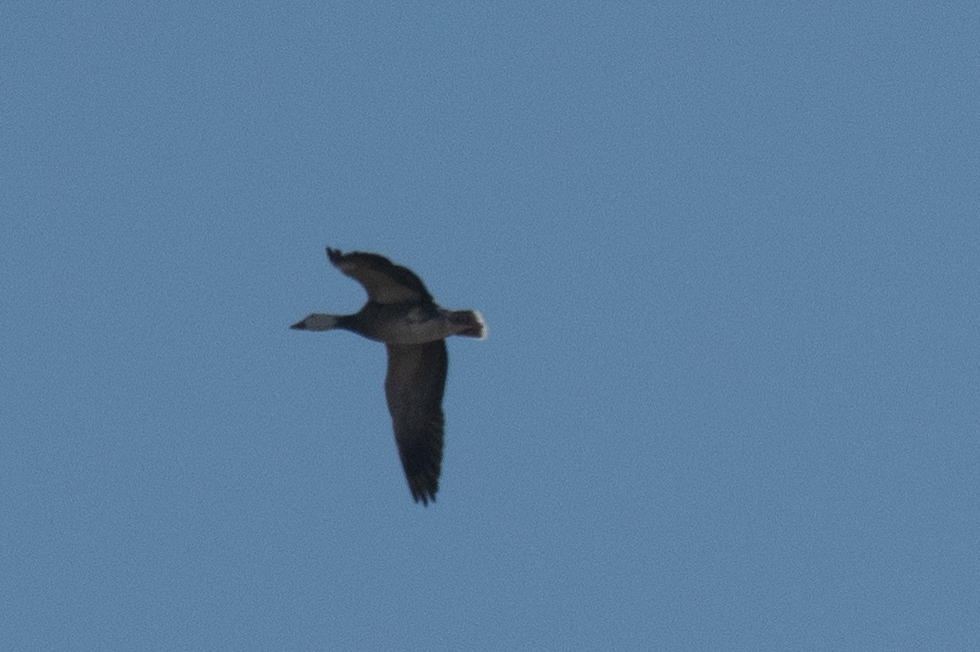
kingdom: Animalia
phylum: Chordata
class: Aves
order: Anseriformes
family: Anatidae
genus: Anser
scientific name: Anser caerulescens
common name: Snow goose
